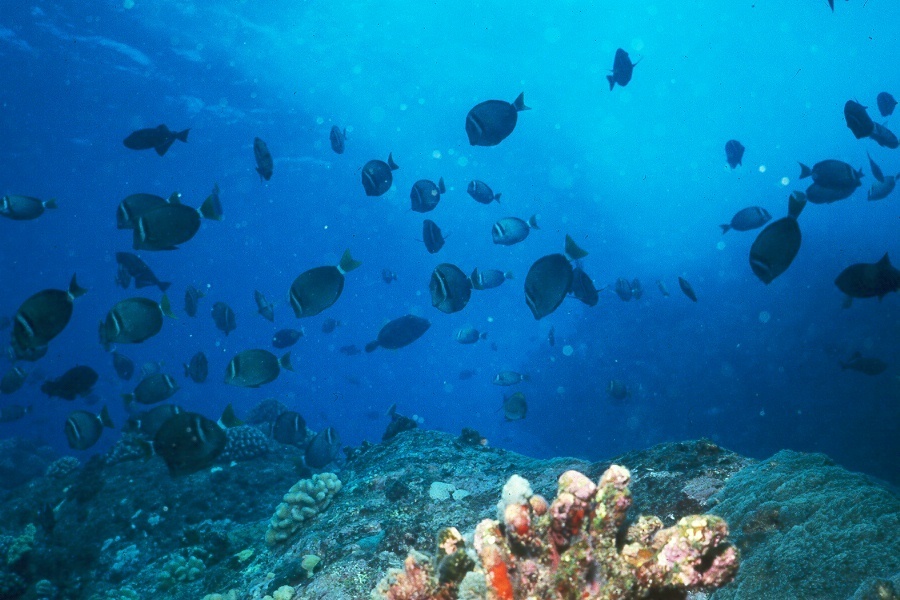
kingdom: Animalia
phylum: Chordata
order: Perciformes
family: Acanthuridae
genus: Acanthurus
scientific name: Acanthurus leucopareius
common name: Head-band surgeonfish
